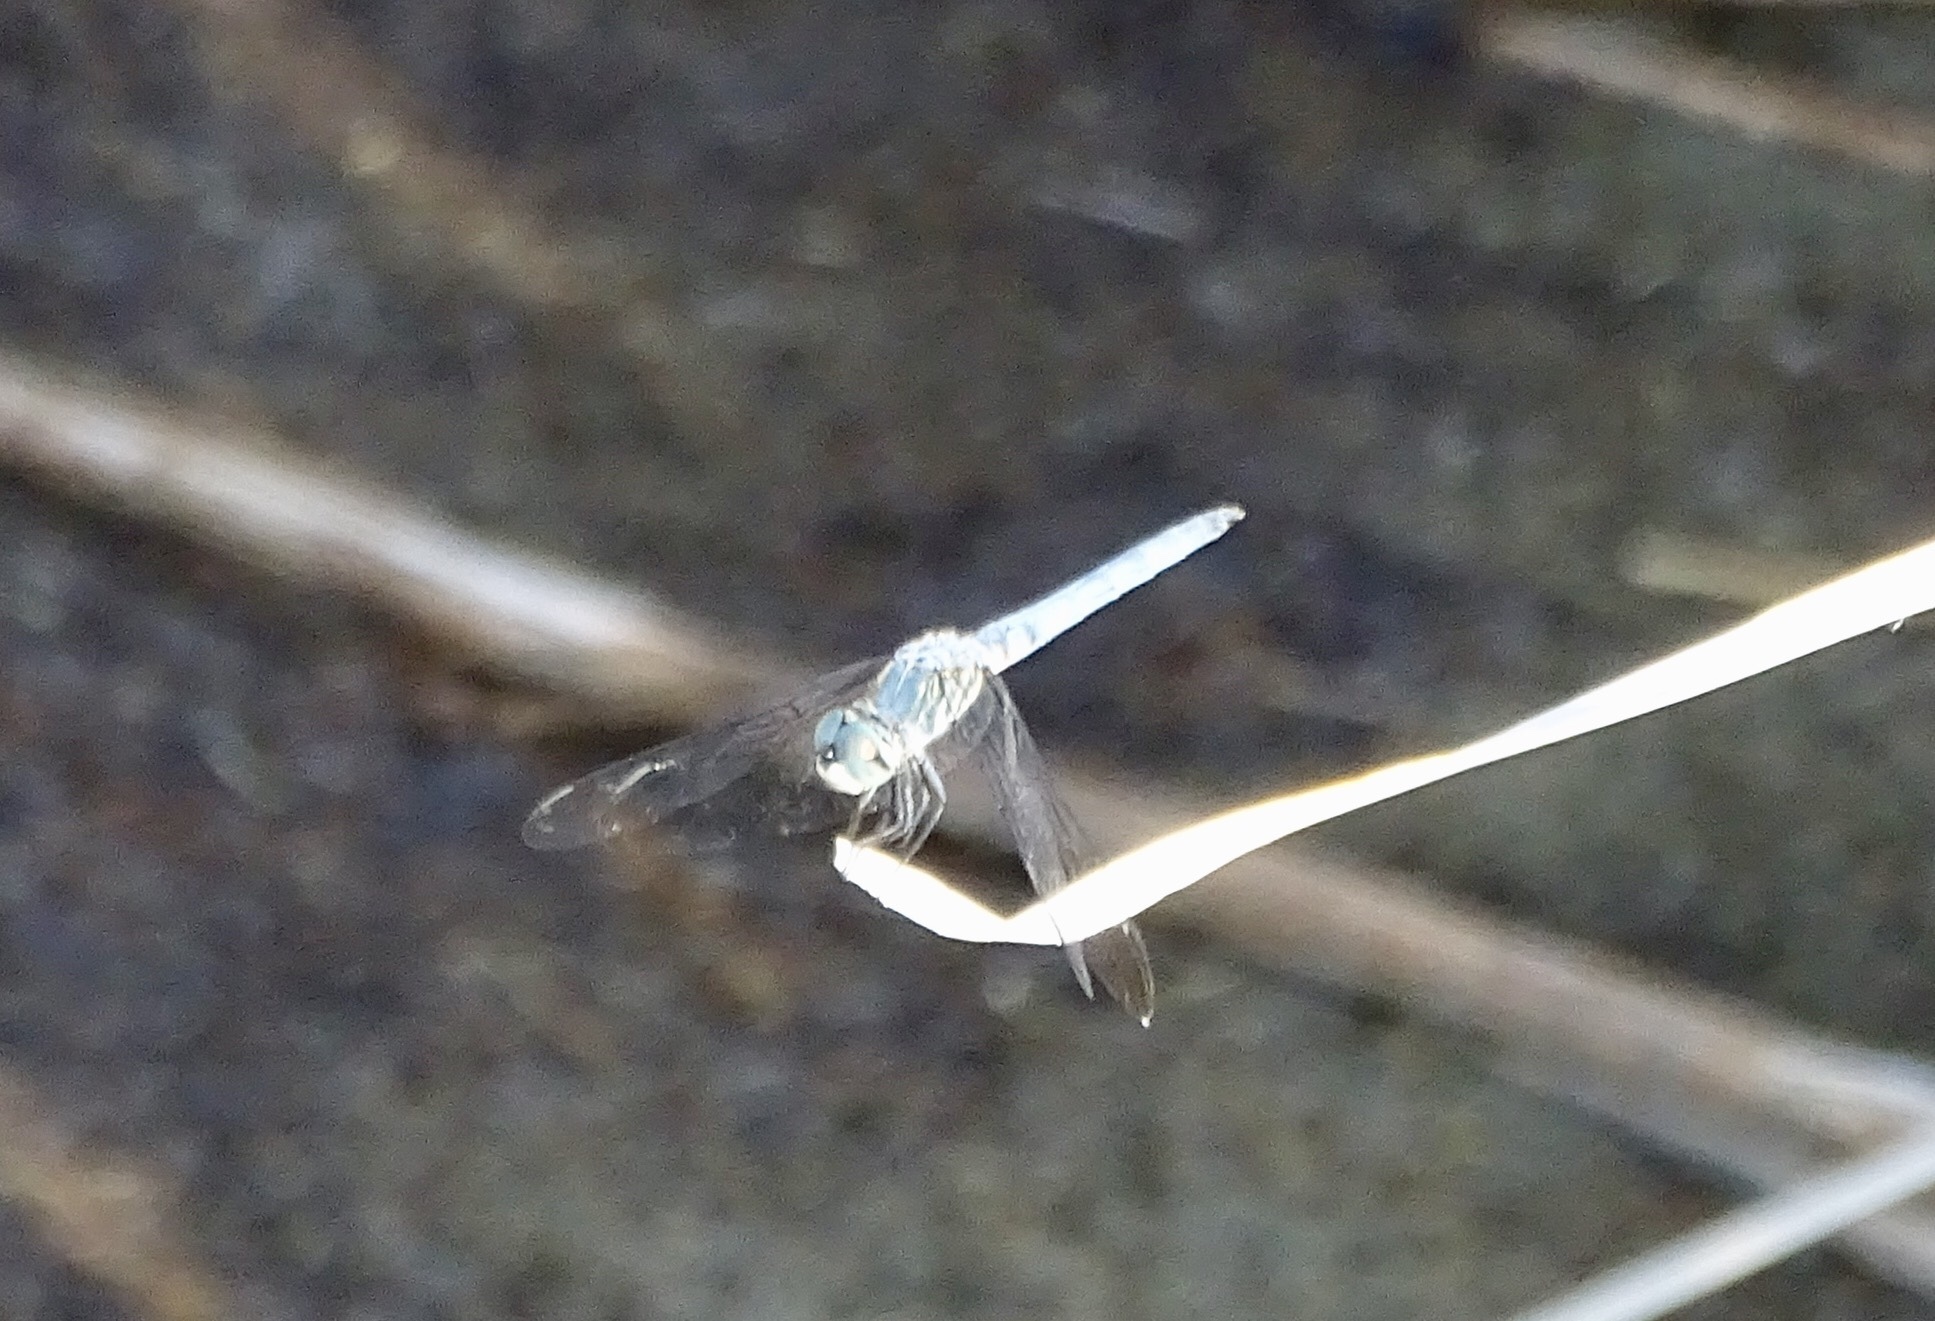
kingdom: Animalia
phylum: Arthropoda
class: Insecta
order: Odonata
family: Libellulidae
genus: Pachydiplax
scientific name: Pachydiplax longipennis
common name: Blue dasher
